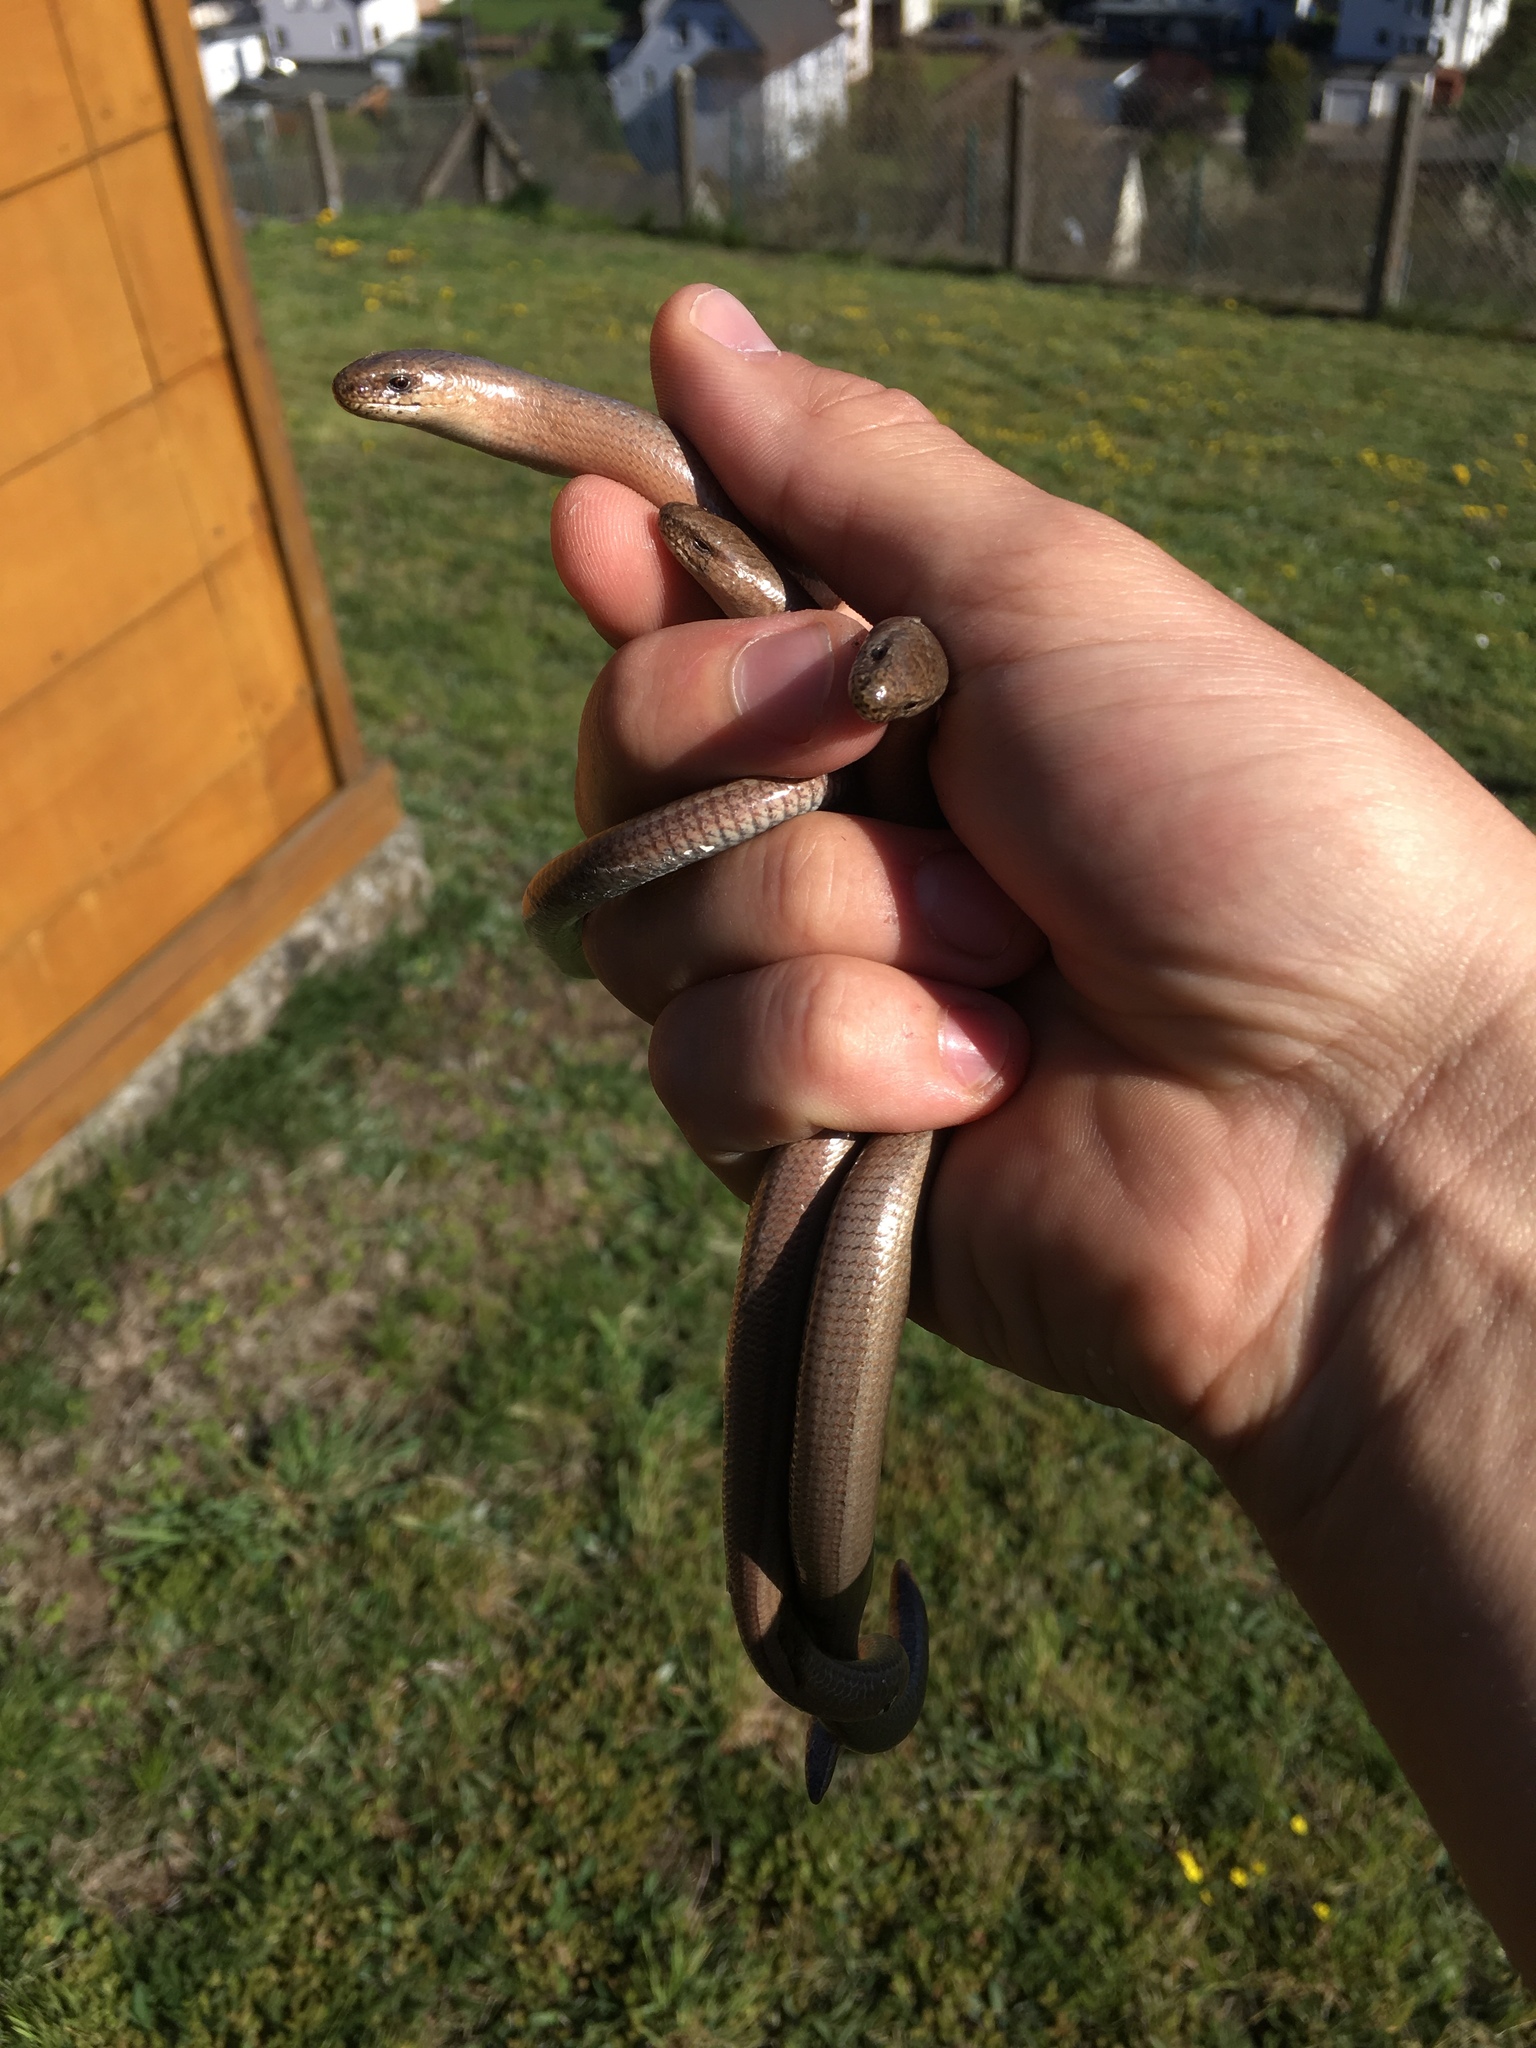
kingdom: Animalia
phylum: Chordata
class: Squamata
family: Anguidae
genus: Anguis
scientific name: Anguis fragilis
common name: Slow worm
